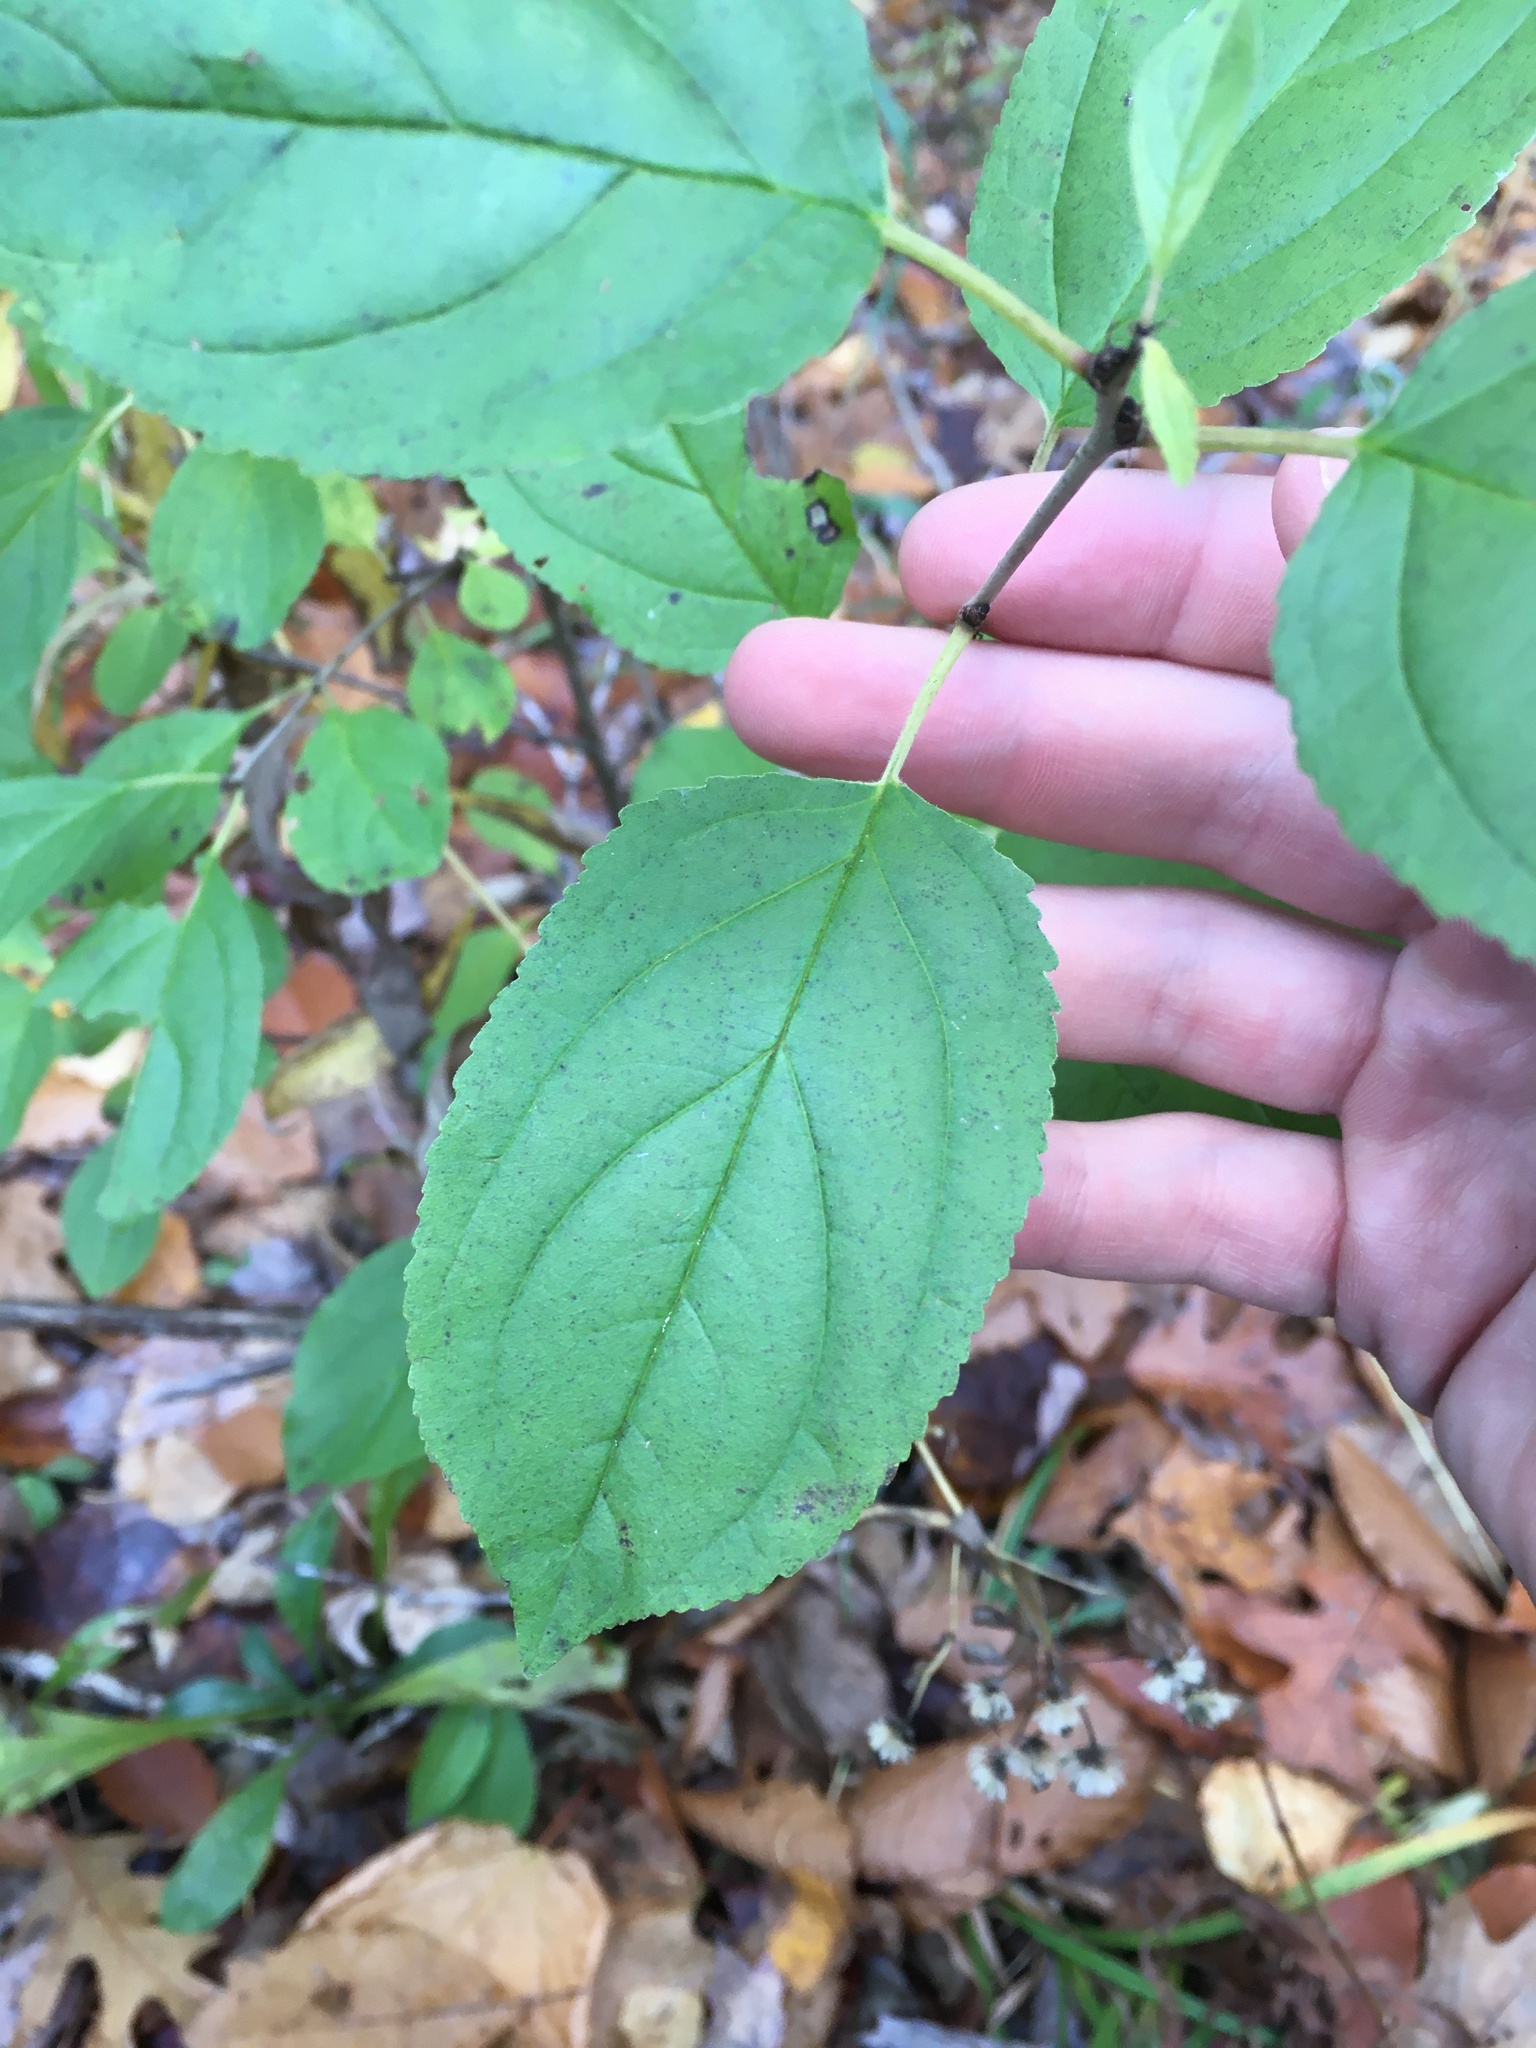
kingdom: Plantae
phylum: Tracheophyta
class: Magnoliopsida
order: Rosales
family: Rhamnaceae
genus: Rhamnus
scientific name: Rhamnus cathartica
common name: Common buckthorn
